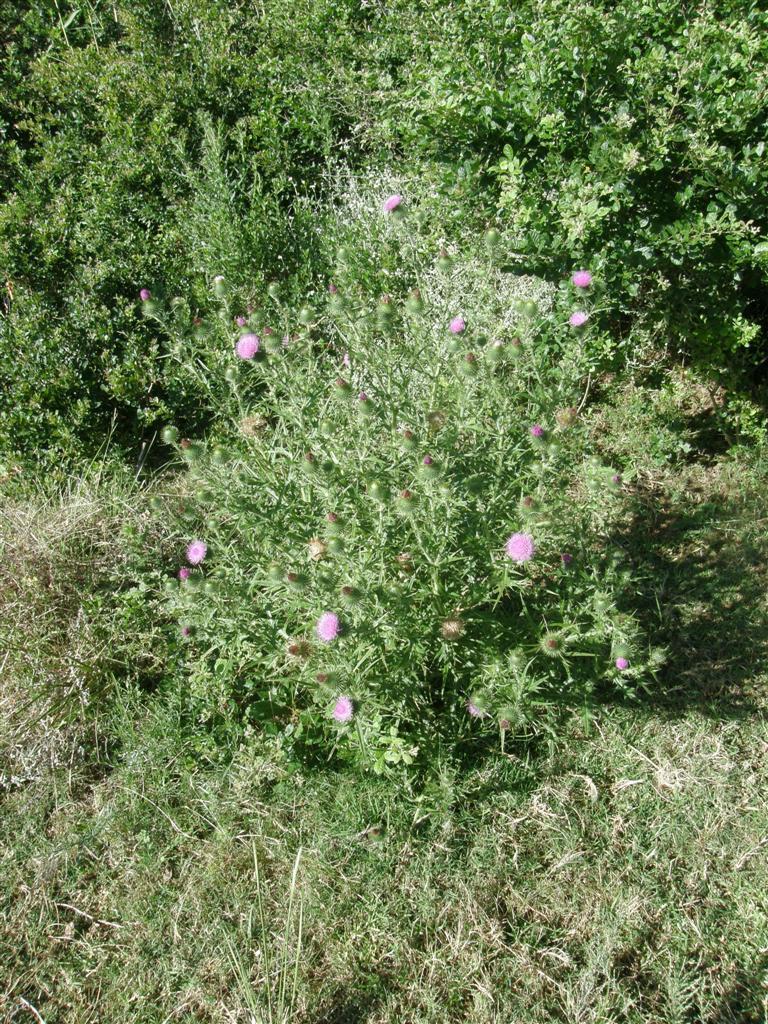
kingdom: Plantae
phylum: Tracheophyta
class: Magnoliopsida
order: Asterales
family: Asteraceae
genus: Cirsium
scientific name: Cirsium vulgare
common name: Bull thistle
